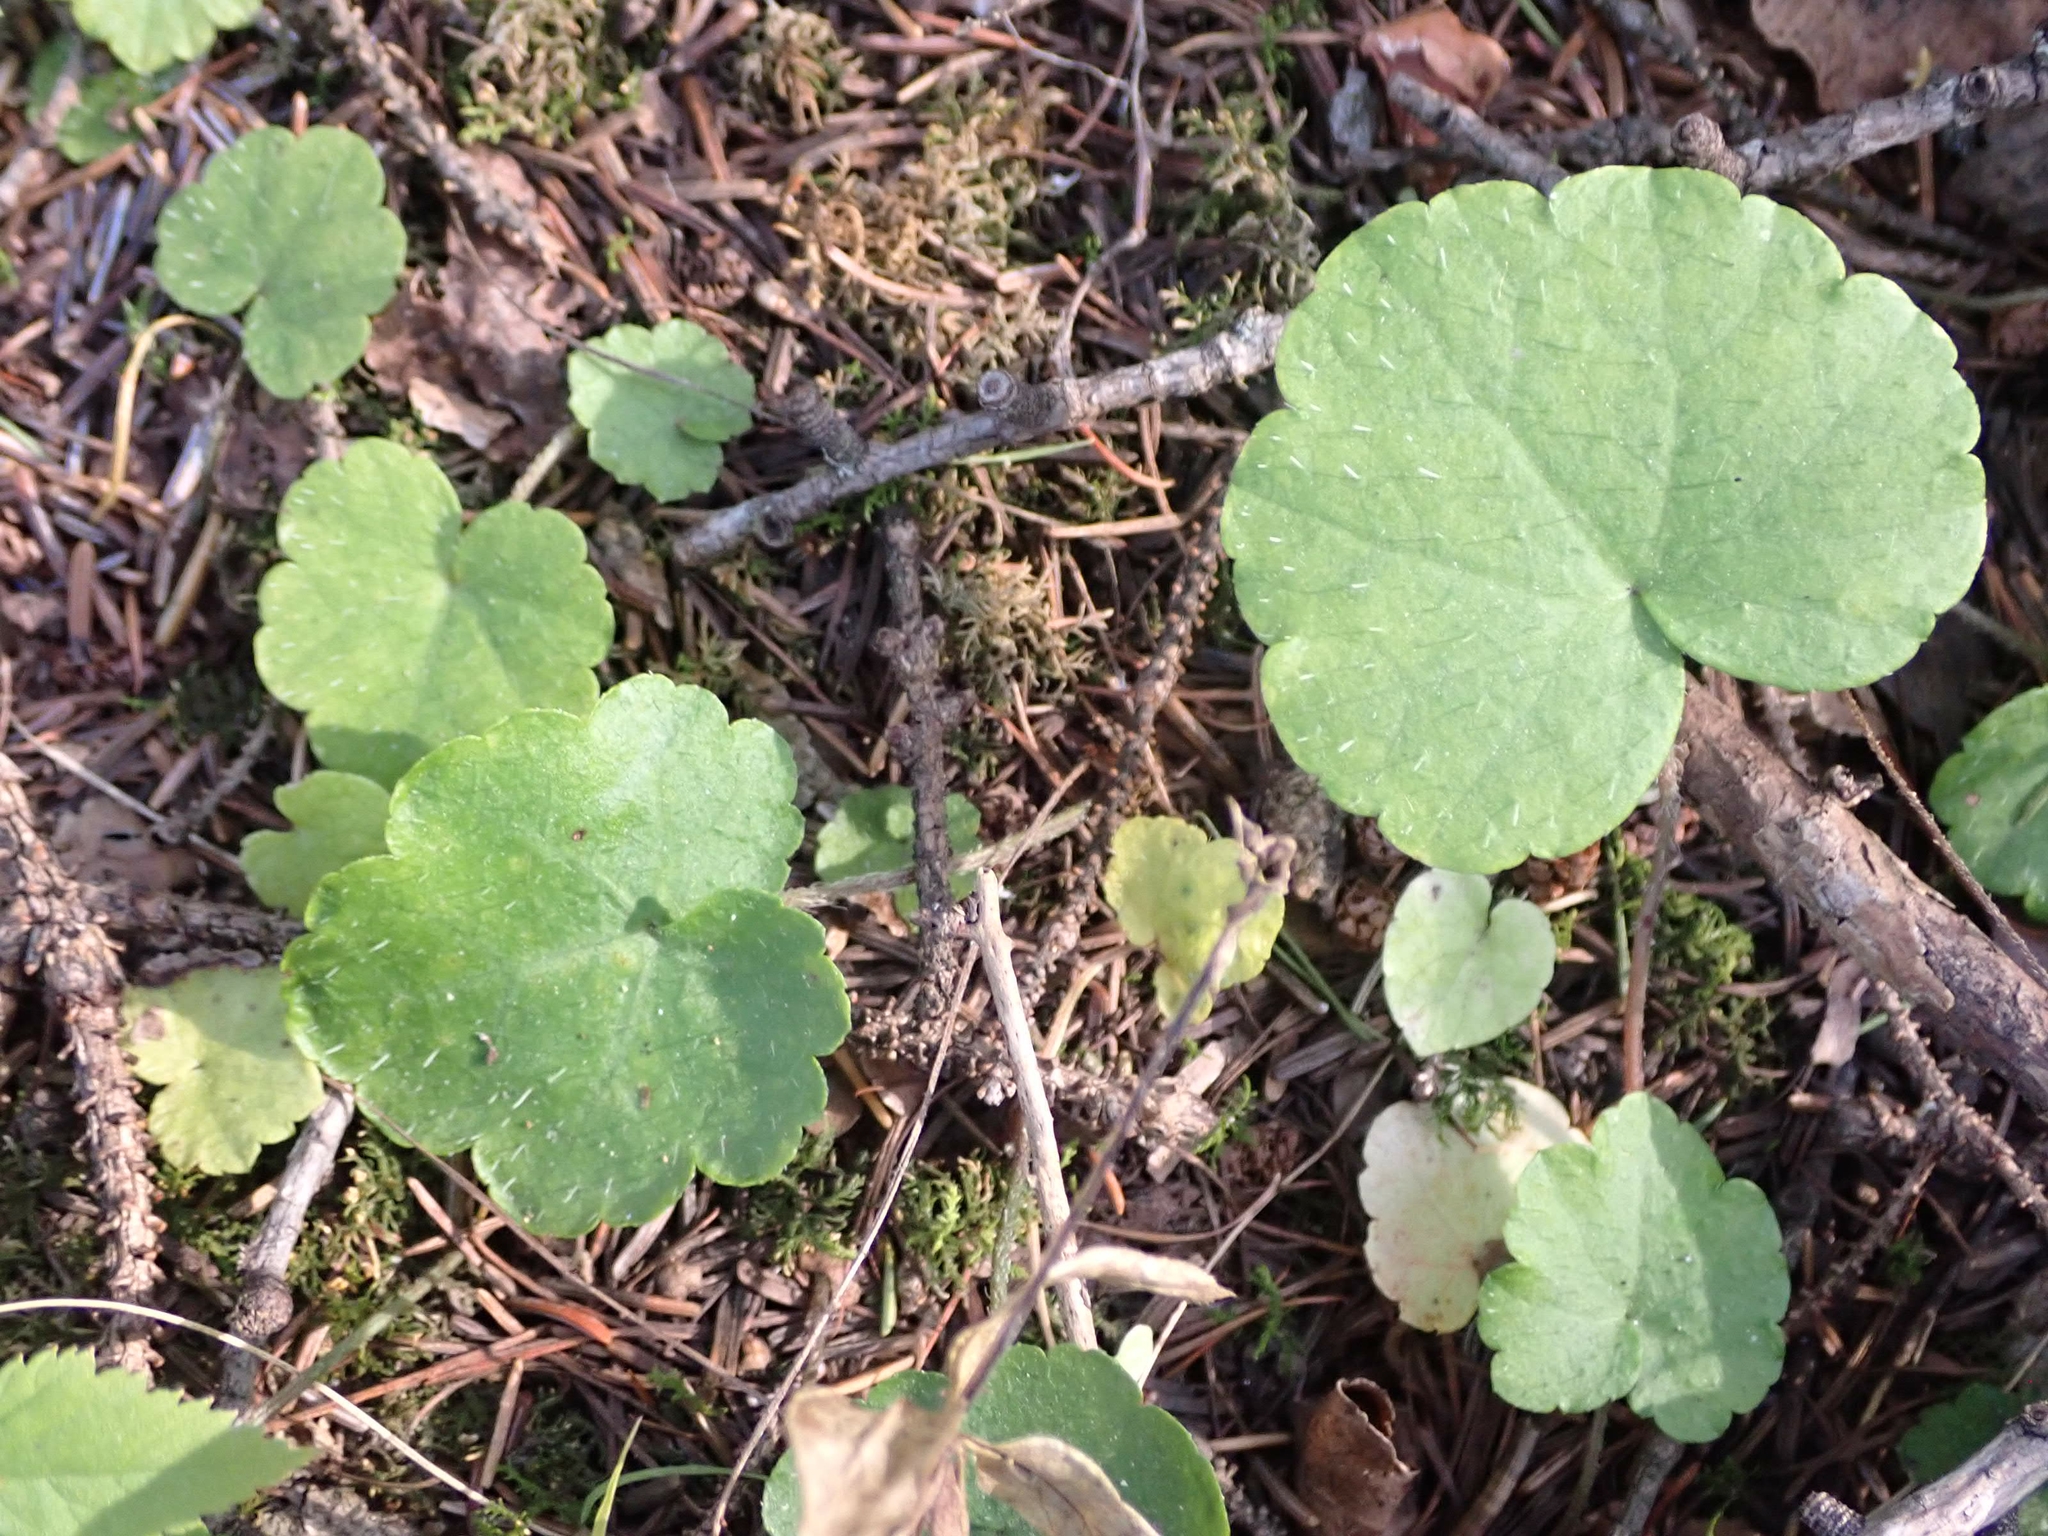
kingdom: Plantae
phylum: Tracheophyta
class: Magnoliopsida
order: Saxifragales
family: Saxifragaceae
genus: Mitella
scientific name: Mitella nuda
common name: Bare-stemmed bishop's-cap
